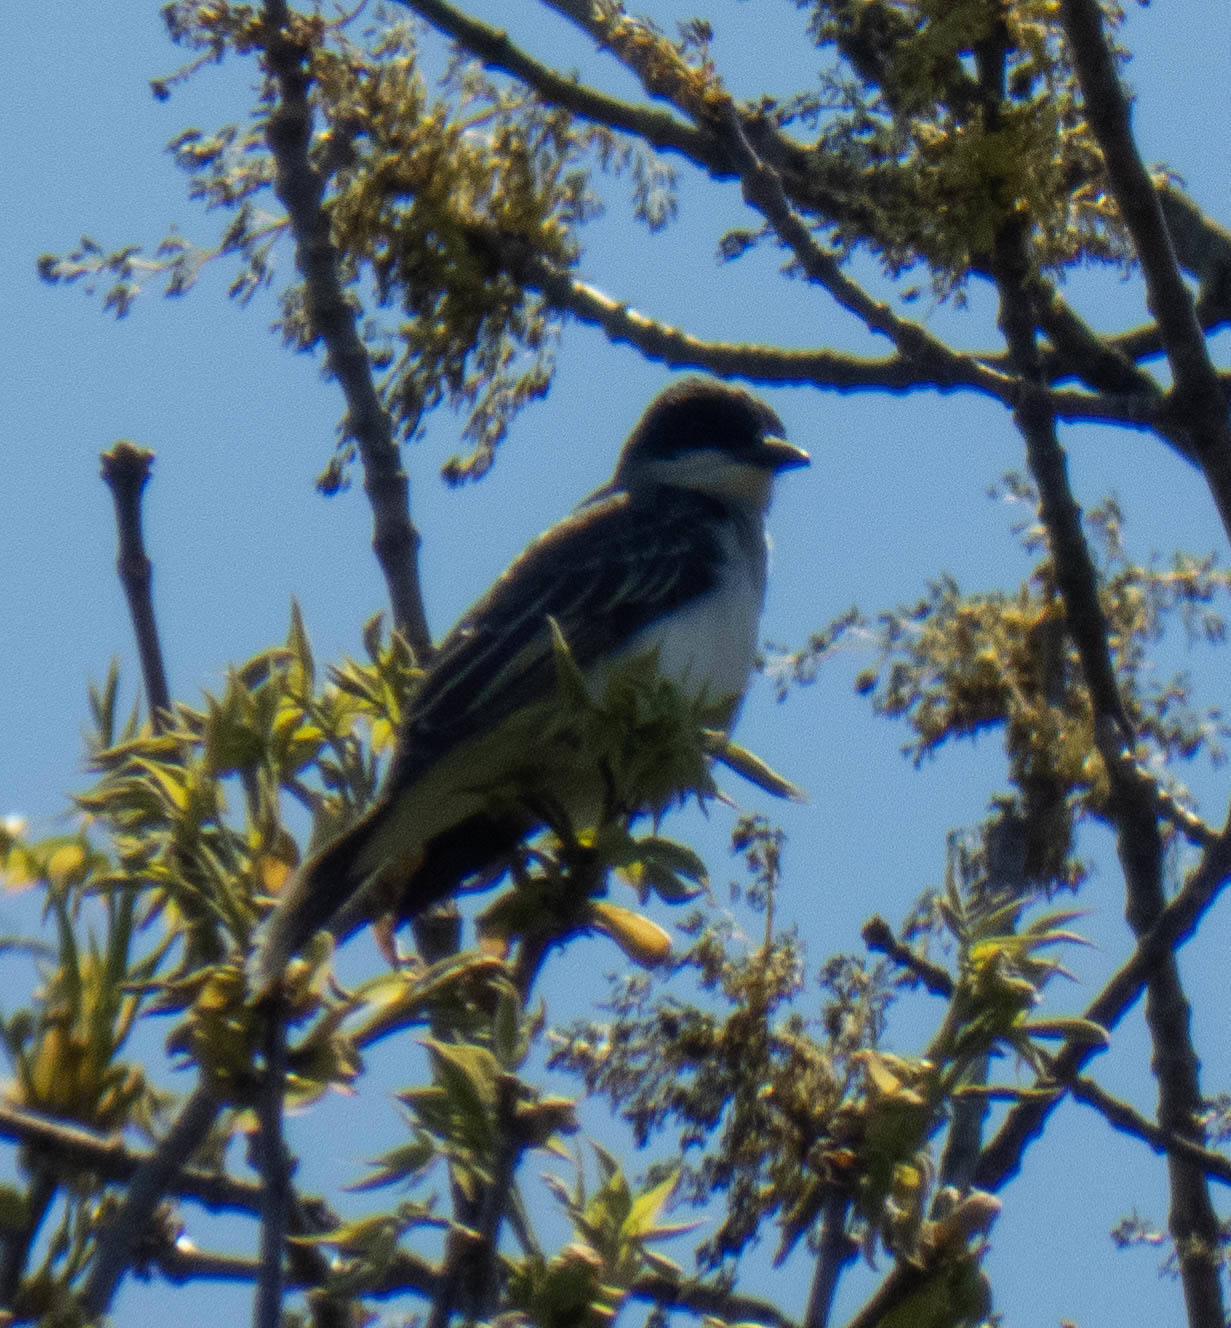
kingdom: Animalia
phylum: Chordata
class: Aves
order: Passeriformes
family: Tyrannidae
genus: Tyrannus
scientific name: Tyrannus tyrannus
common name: Eastern kingbird
